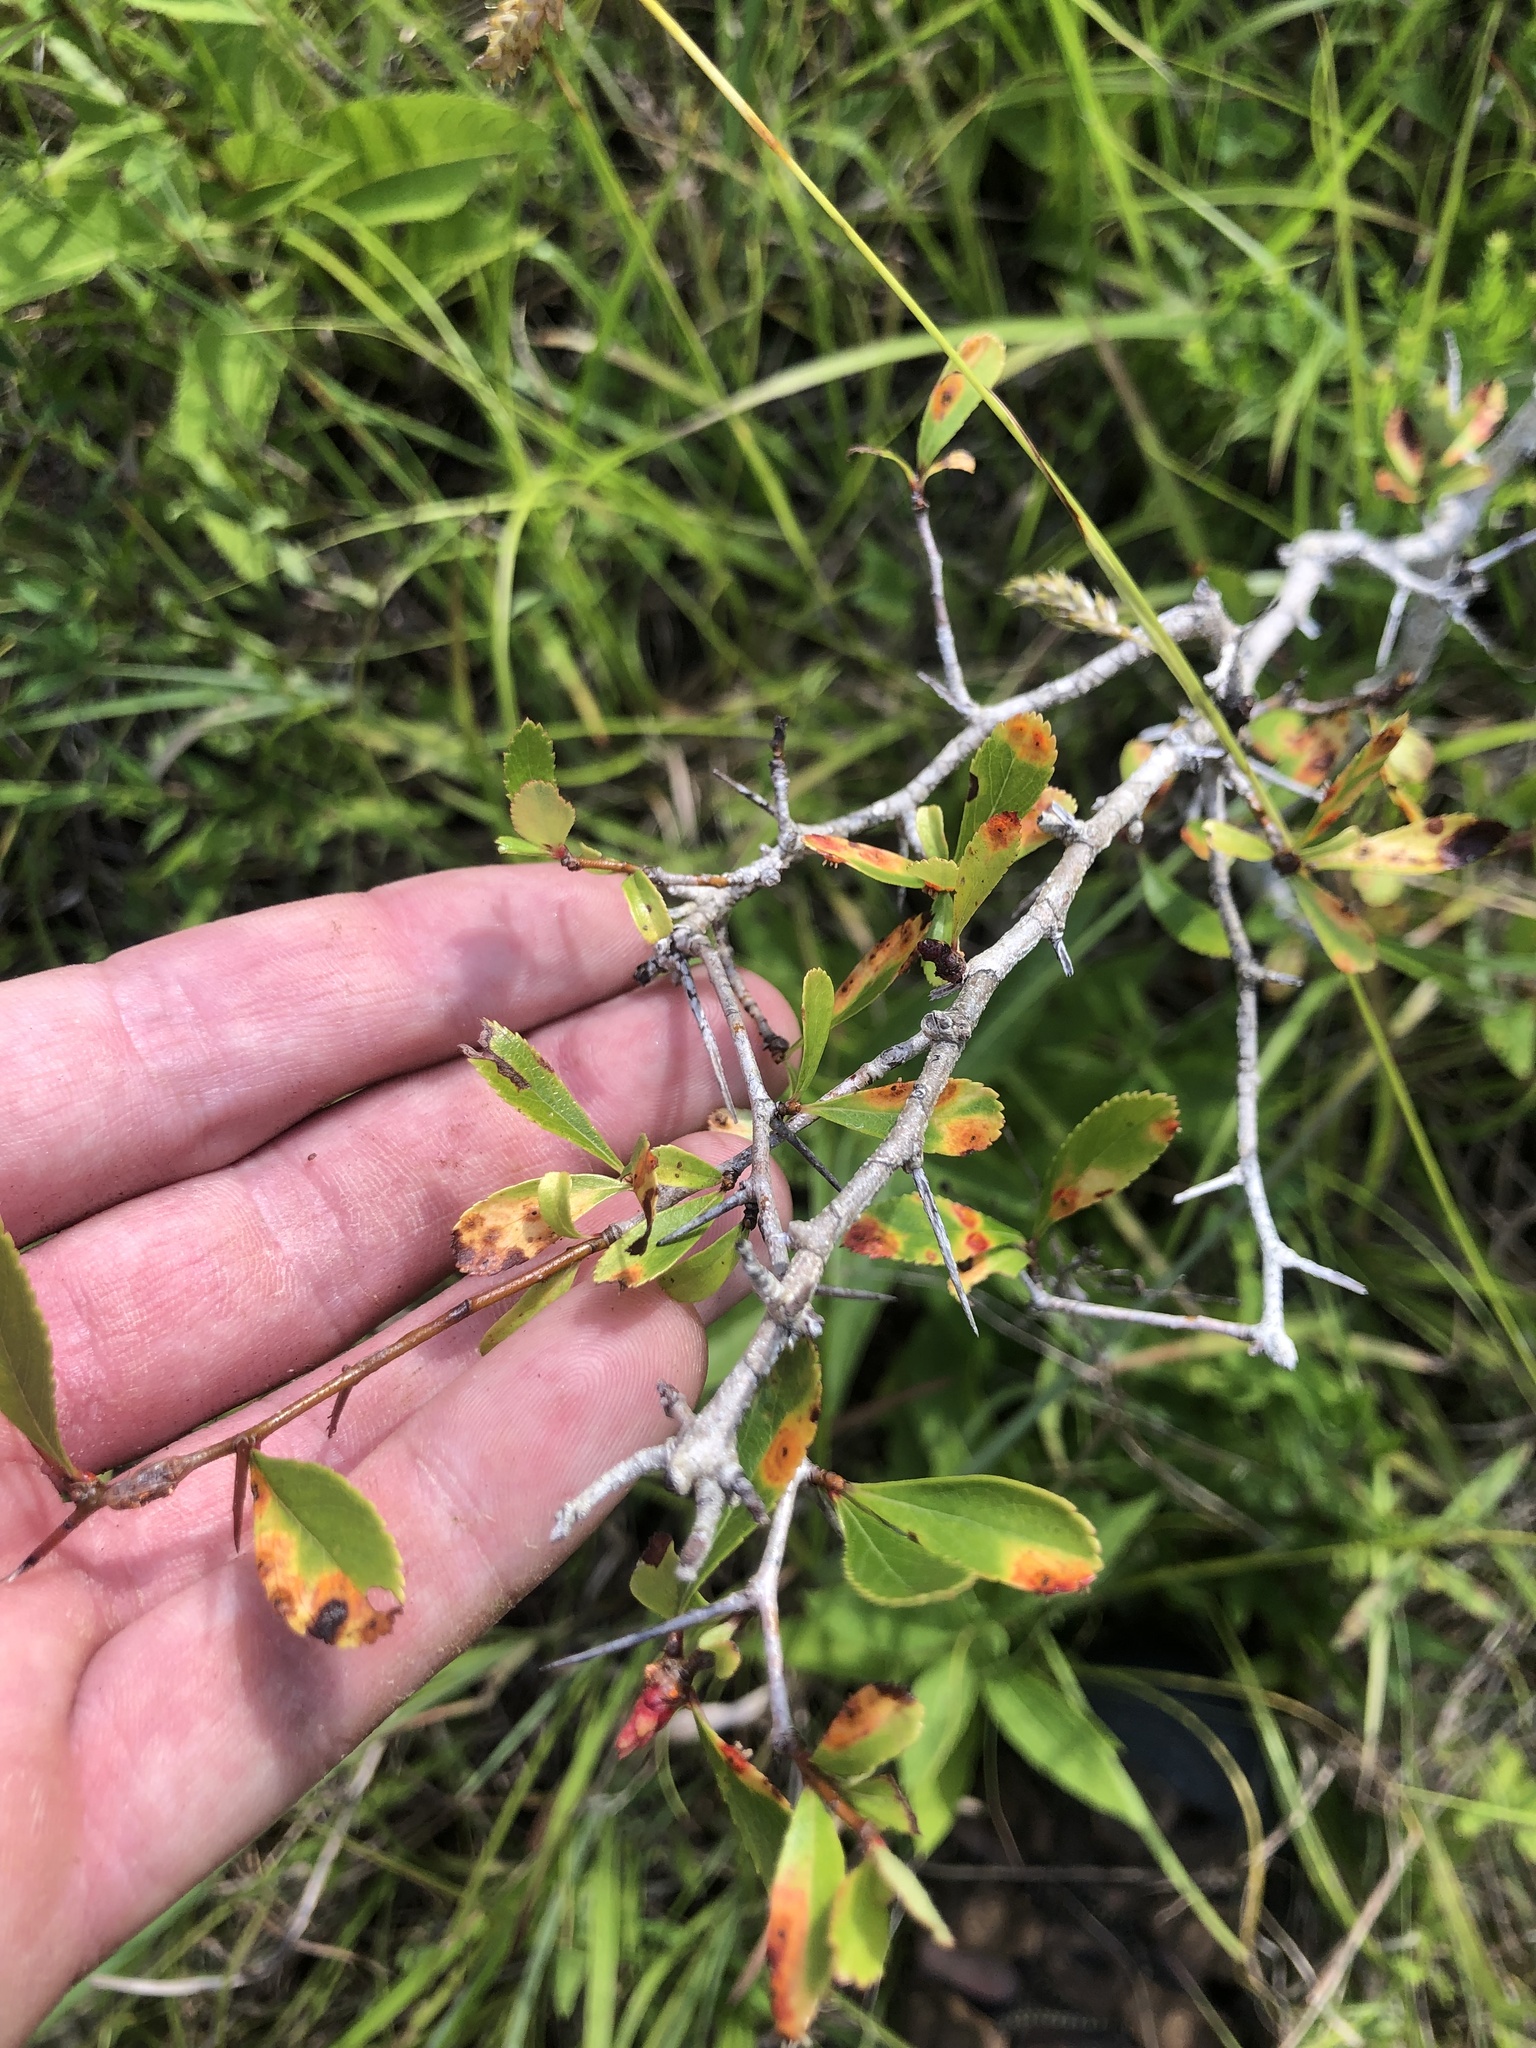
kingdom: Plantae
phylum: Tracheophyta
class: Magnoliopsida
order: Rosales
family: Rosaceae
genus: Crataegus
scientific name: Crataegus berberifolia
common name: Barberry hawthorn
